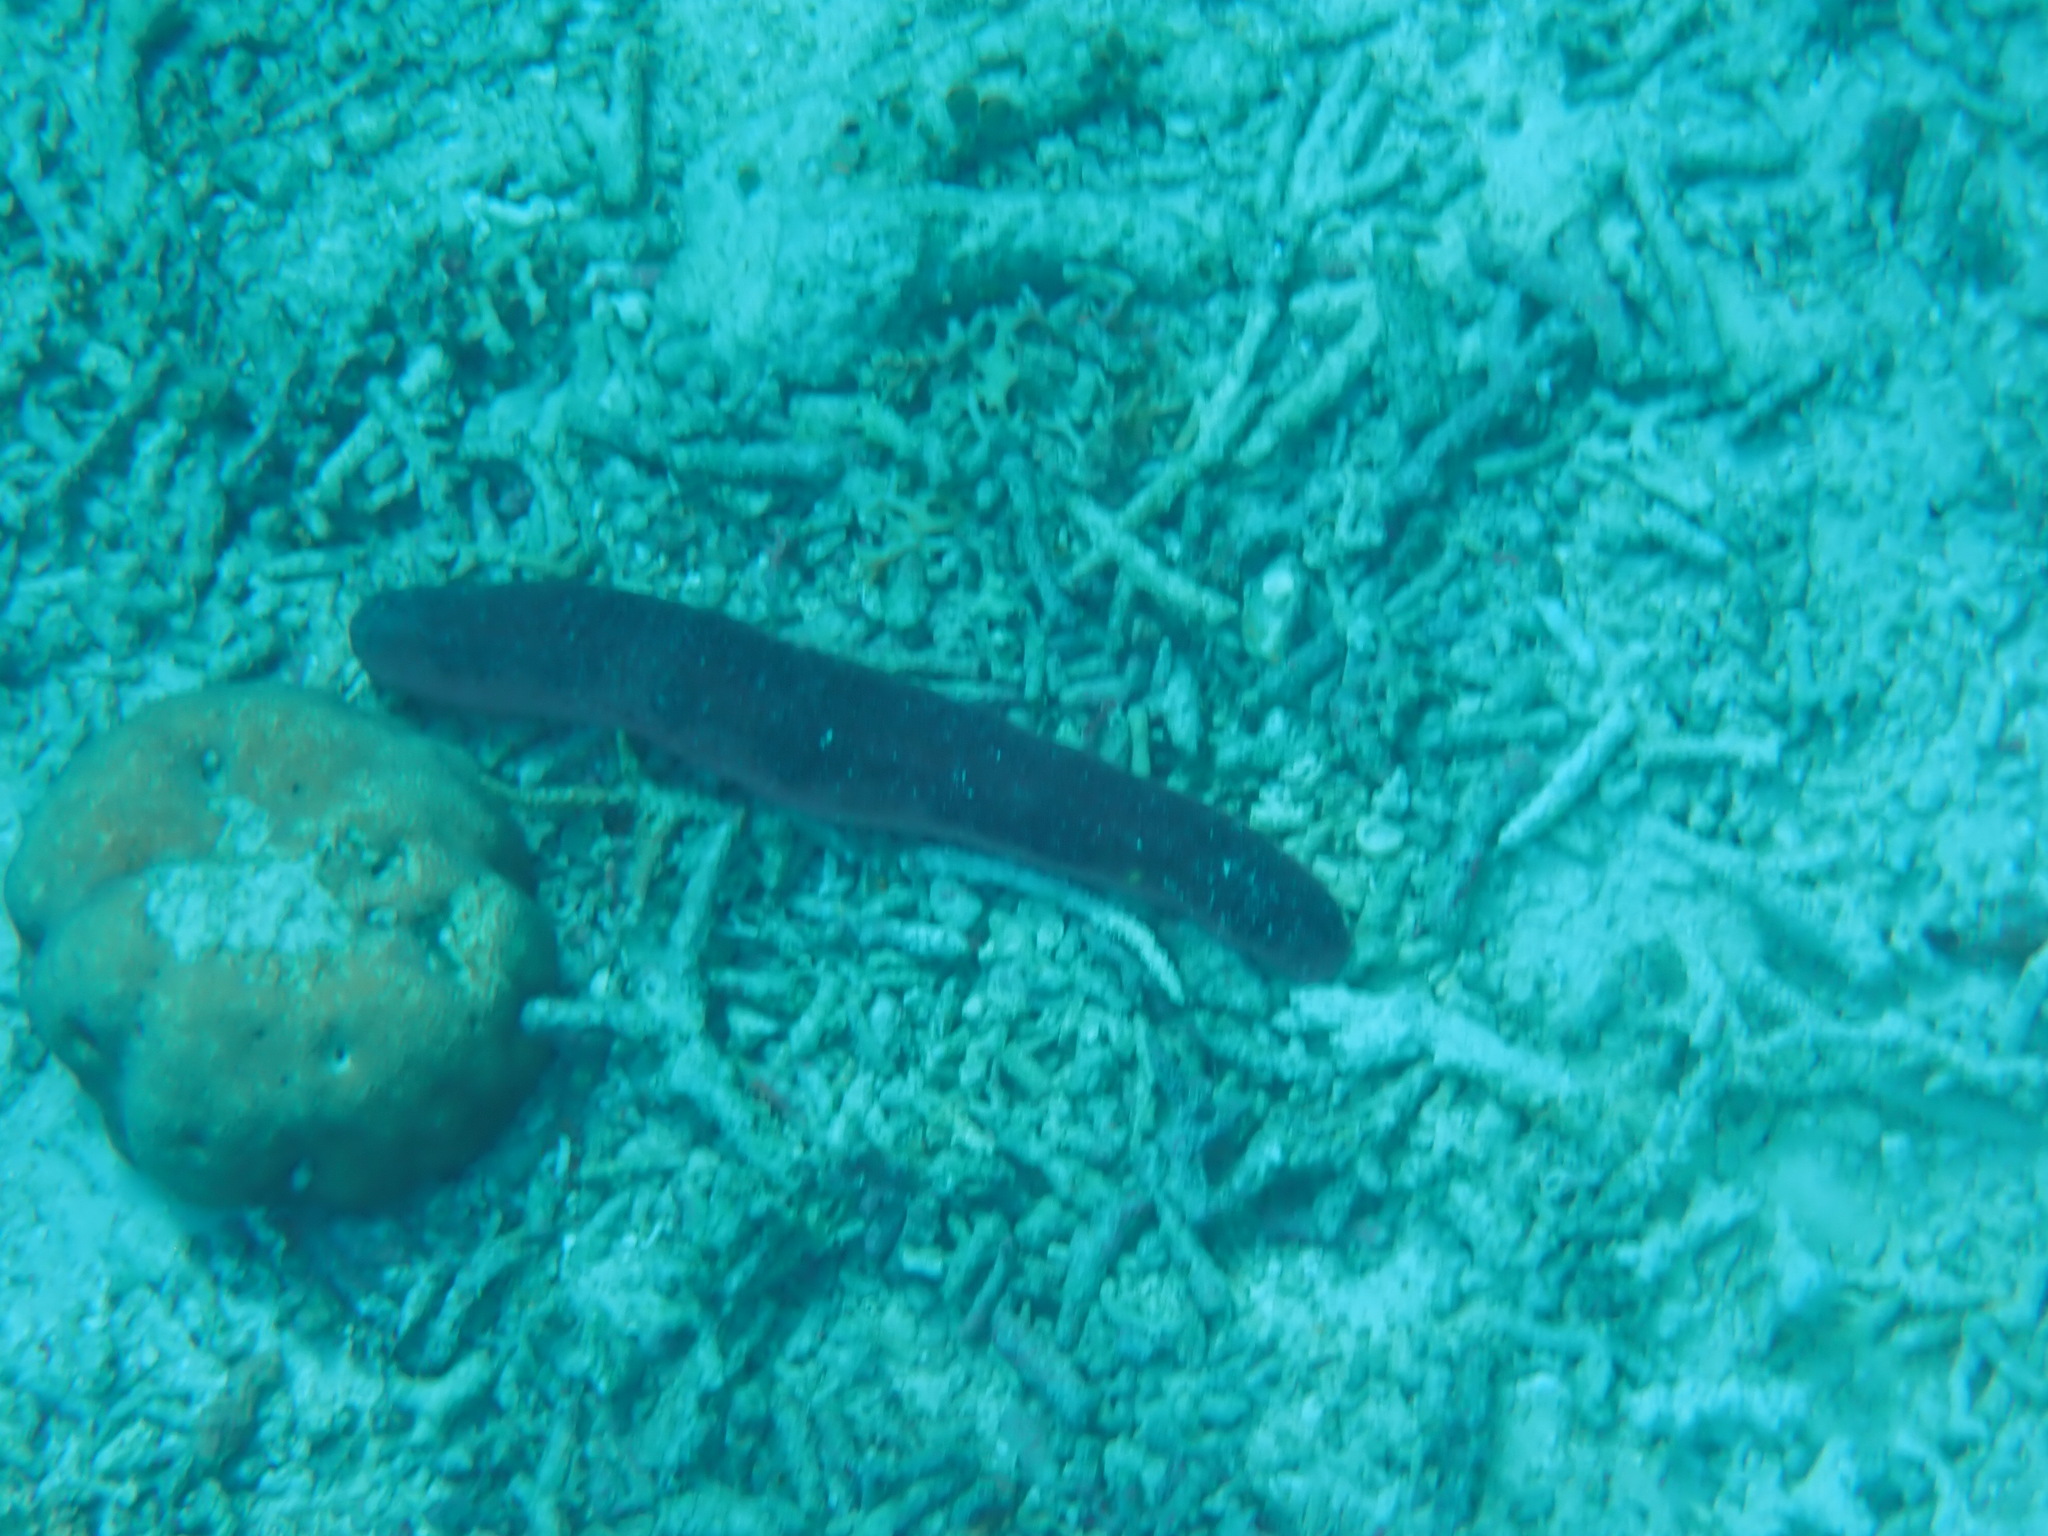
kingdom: Animalia
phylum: Echinodermata
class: Holothuroidea
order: Holothuriida
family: Holothuriidae
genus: Holothuria
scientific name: Holothuria edulis
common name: Pinkfish
